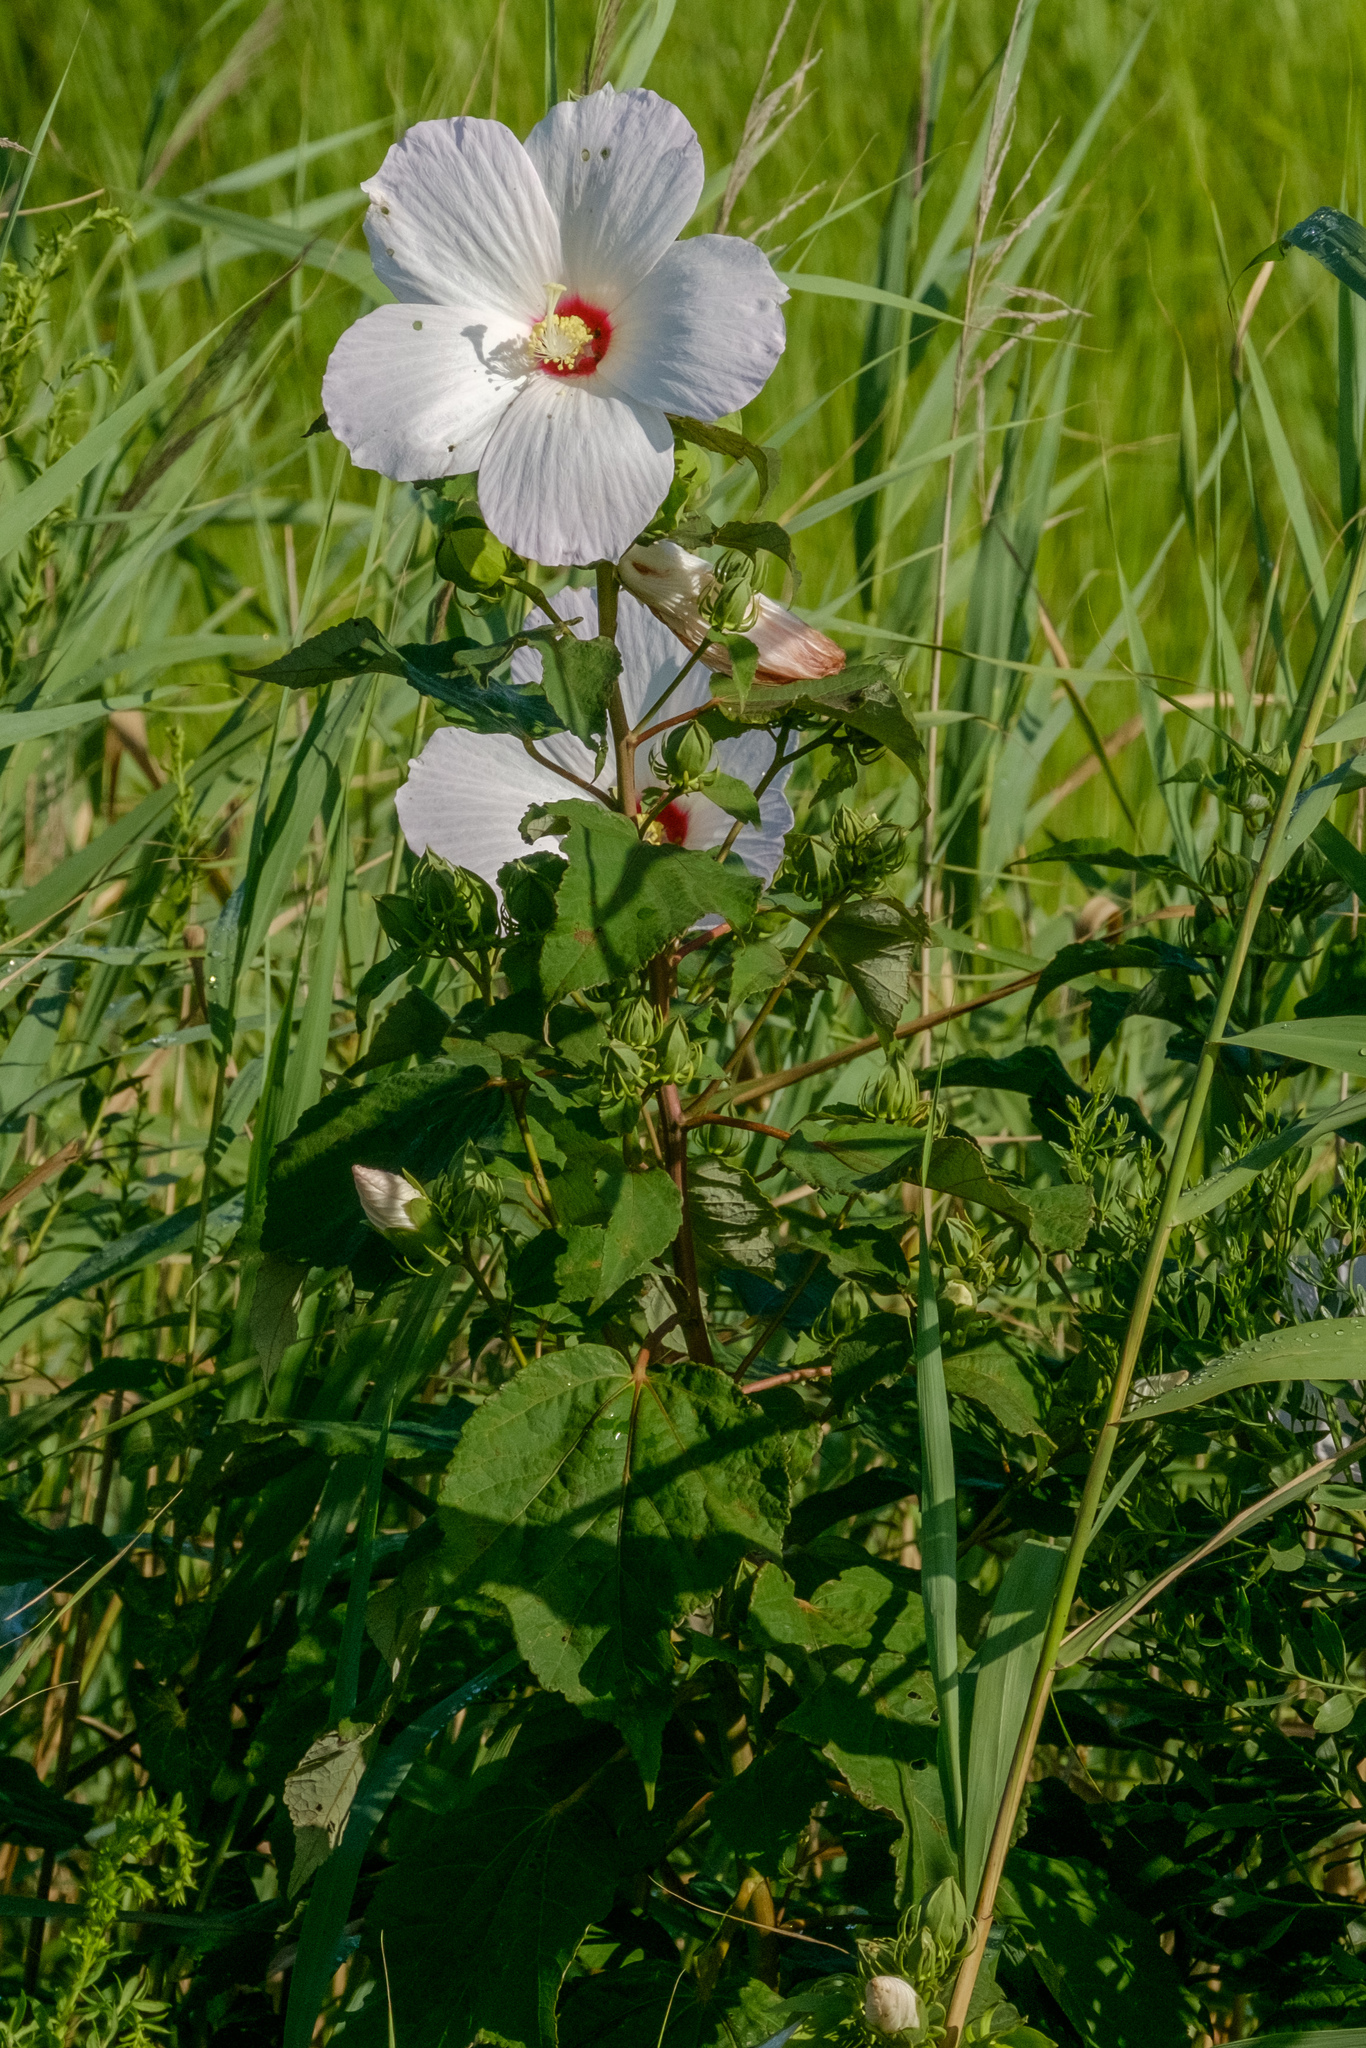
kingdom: Plantae
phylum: Tracheophyta
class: Magnoliopsida
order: Malvales
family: Malvaceae
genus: Hibiscus
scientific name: Hibiscus moscheutos
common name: Common rose-mallow
